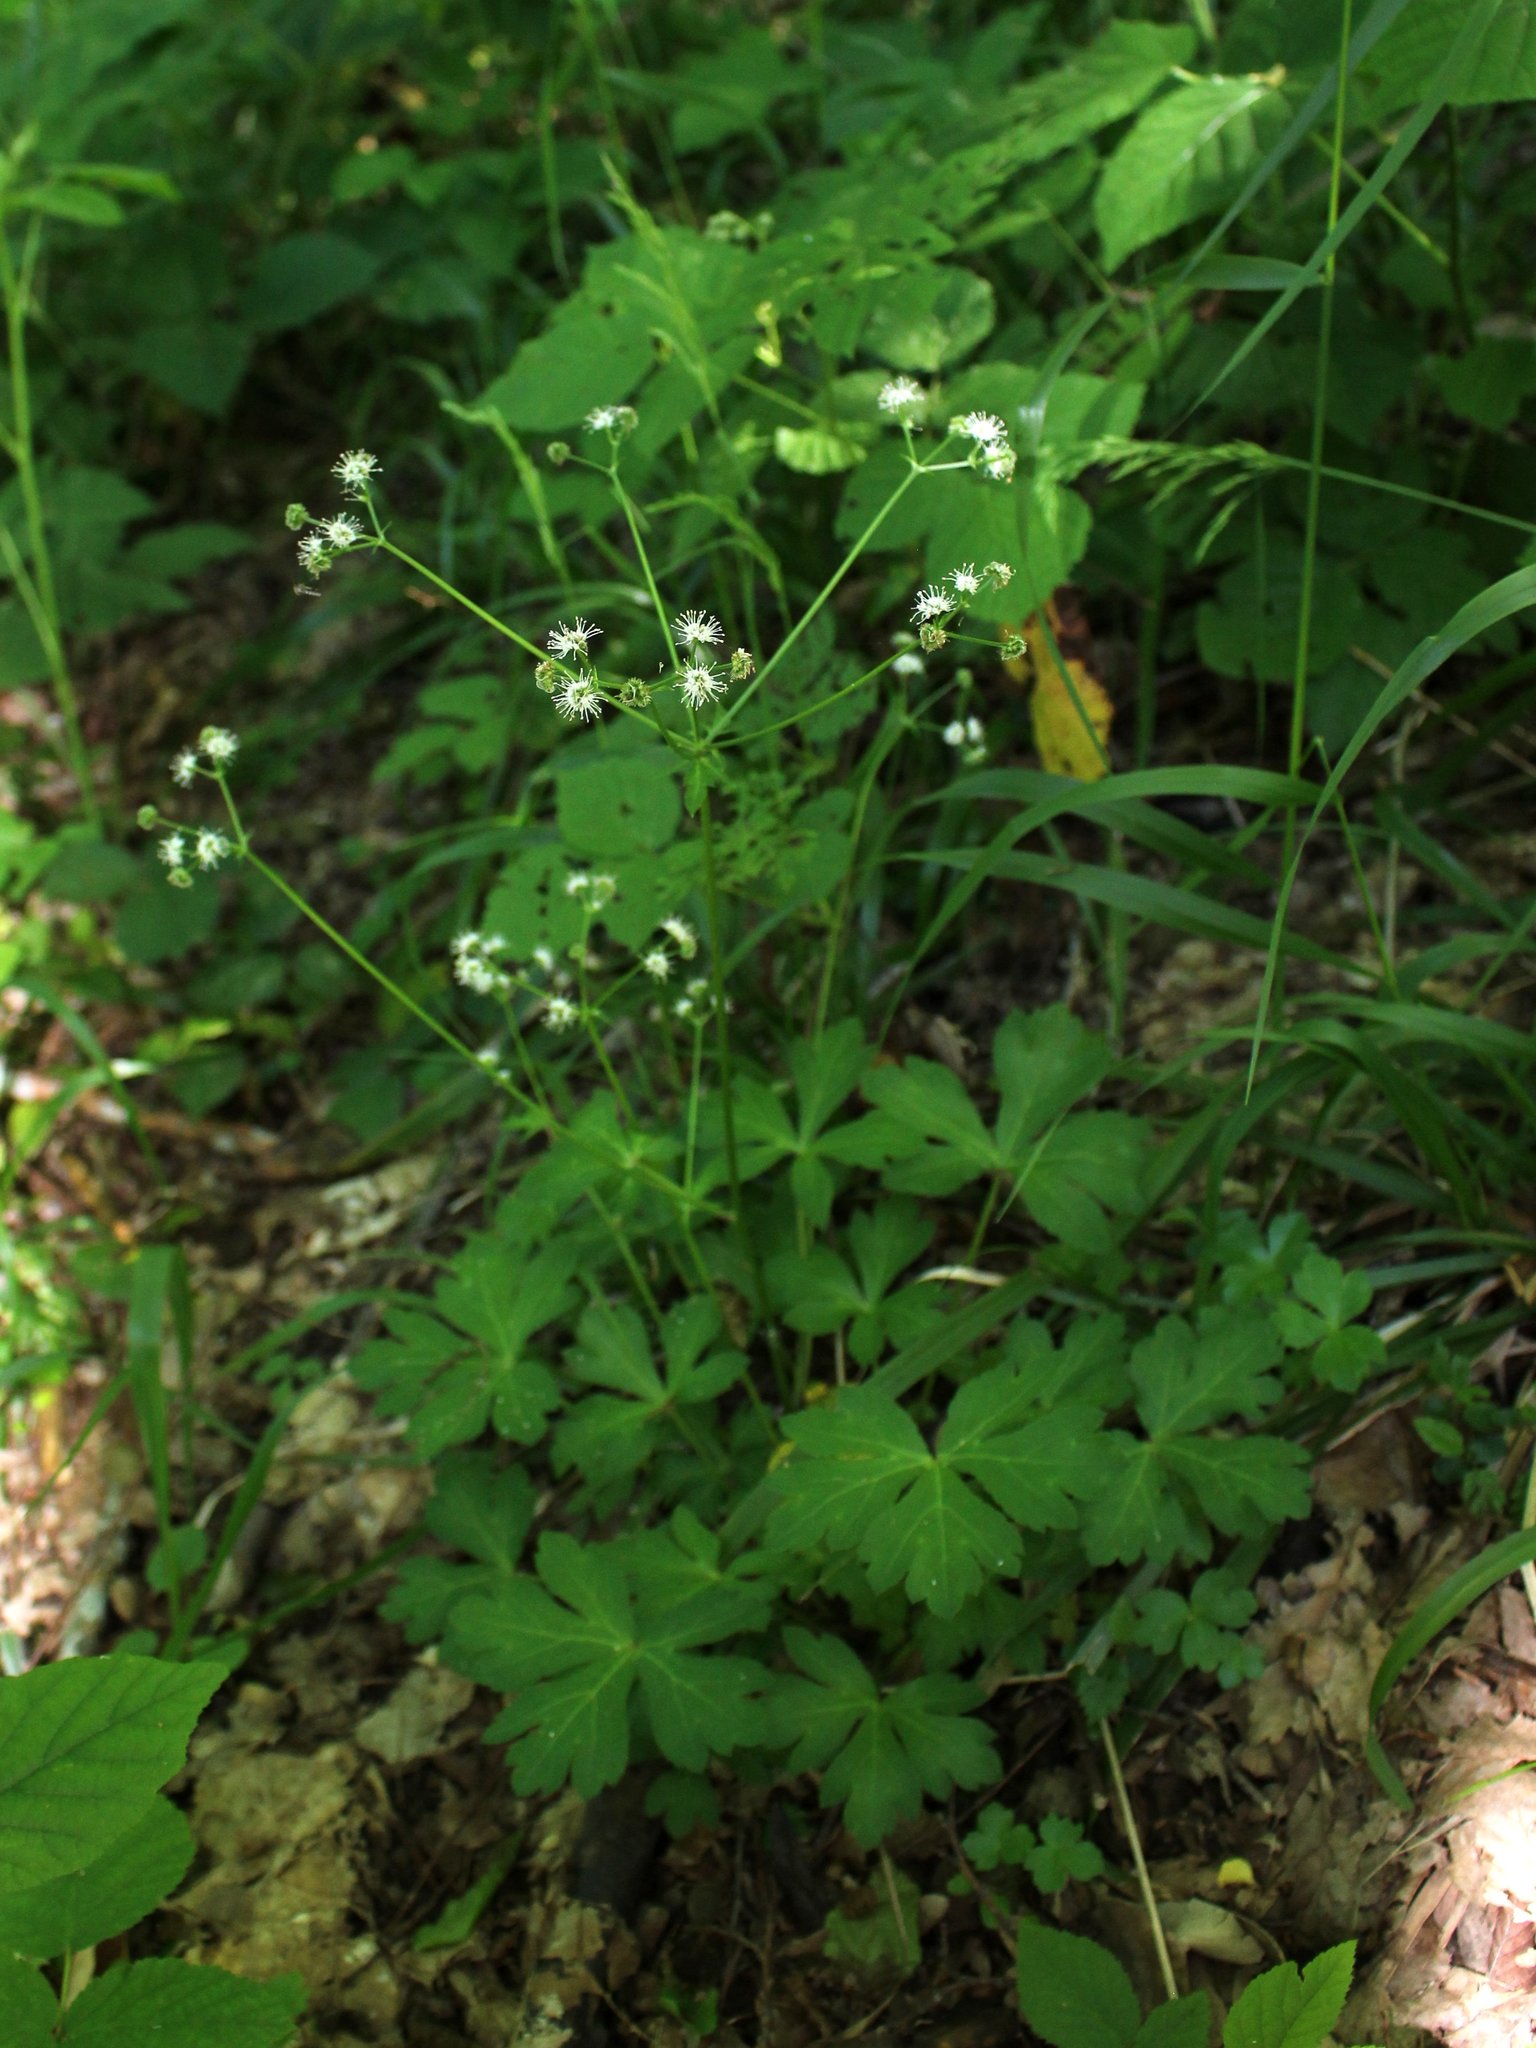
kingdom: Plantae
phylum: Tracheophyta
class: Magnoliopsida
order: Apiales
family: Apiaceae
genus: Sanicula
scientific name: Sanicula europaea
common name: Sanicle
